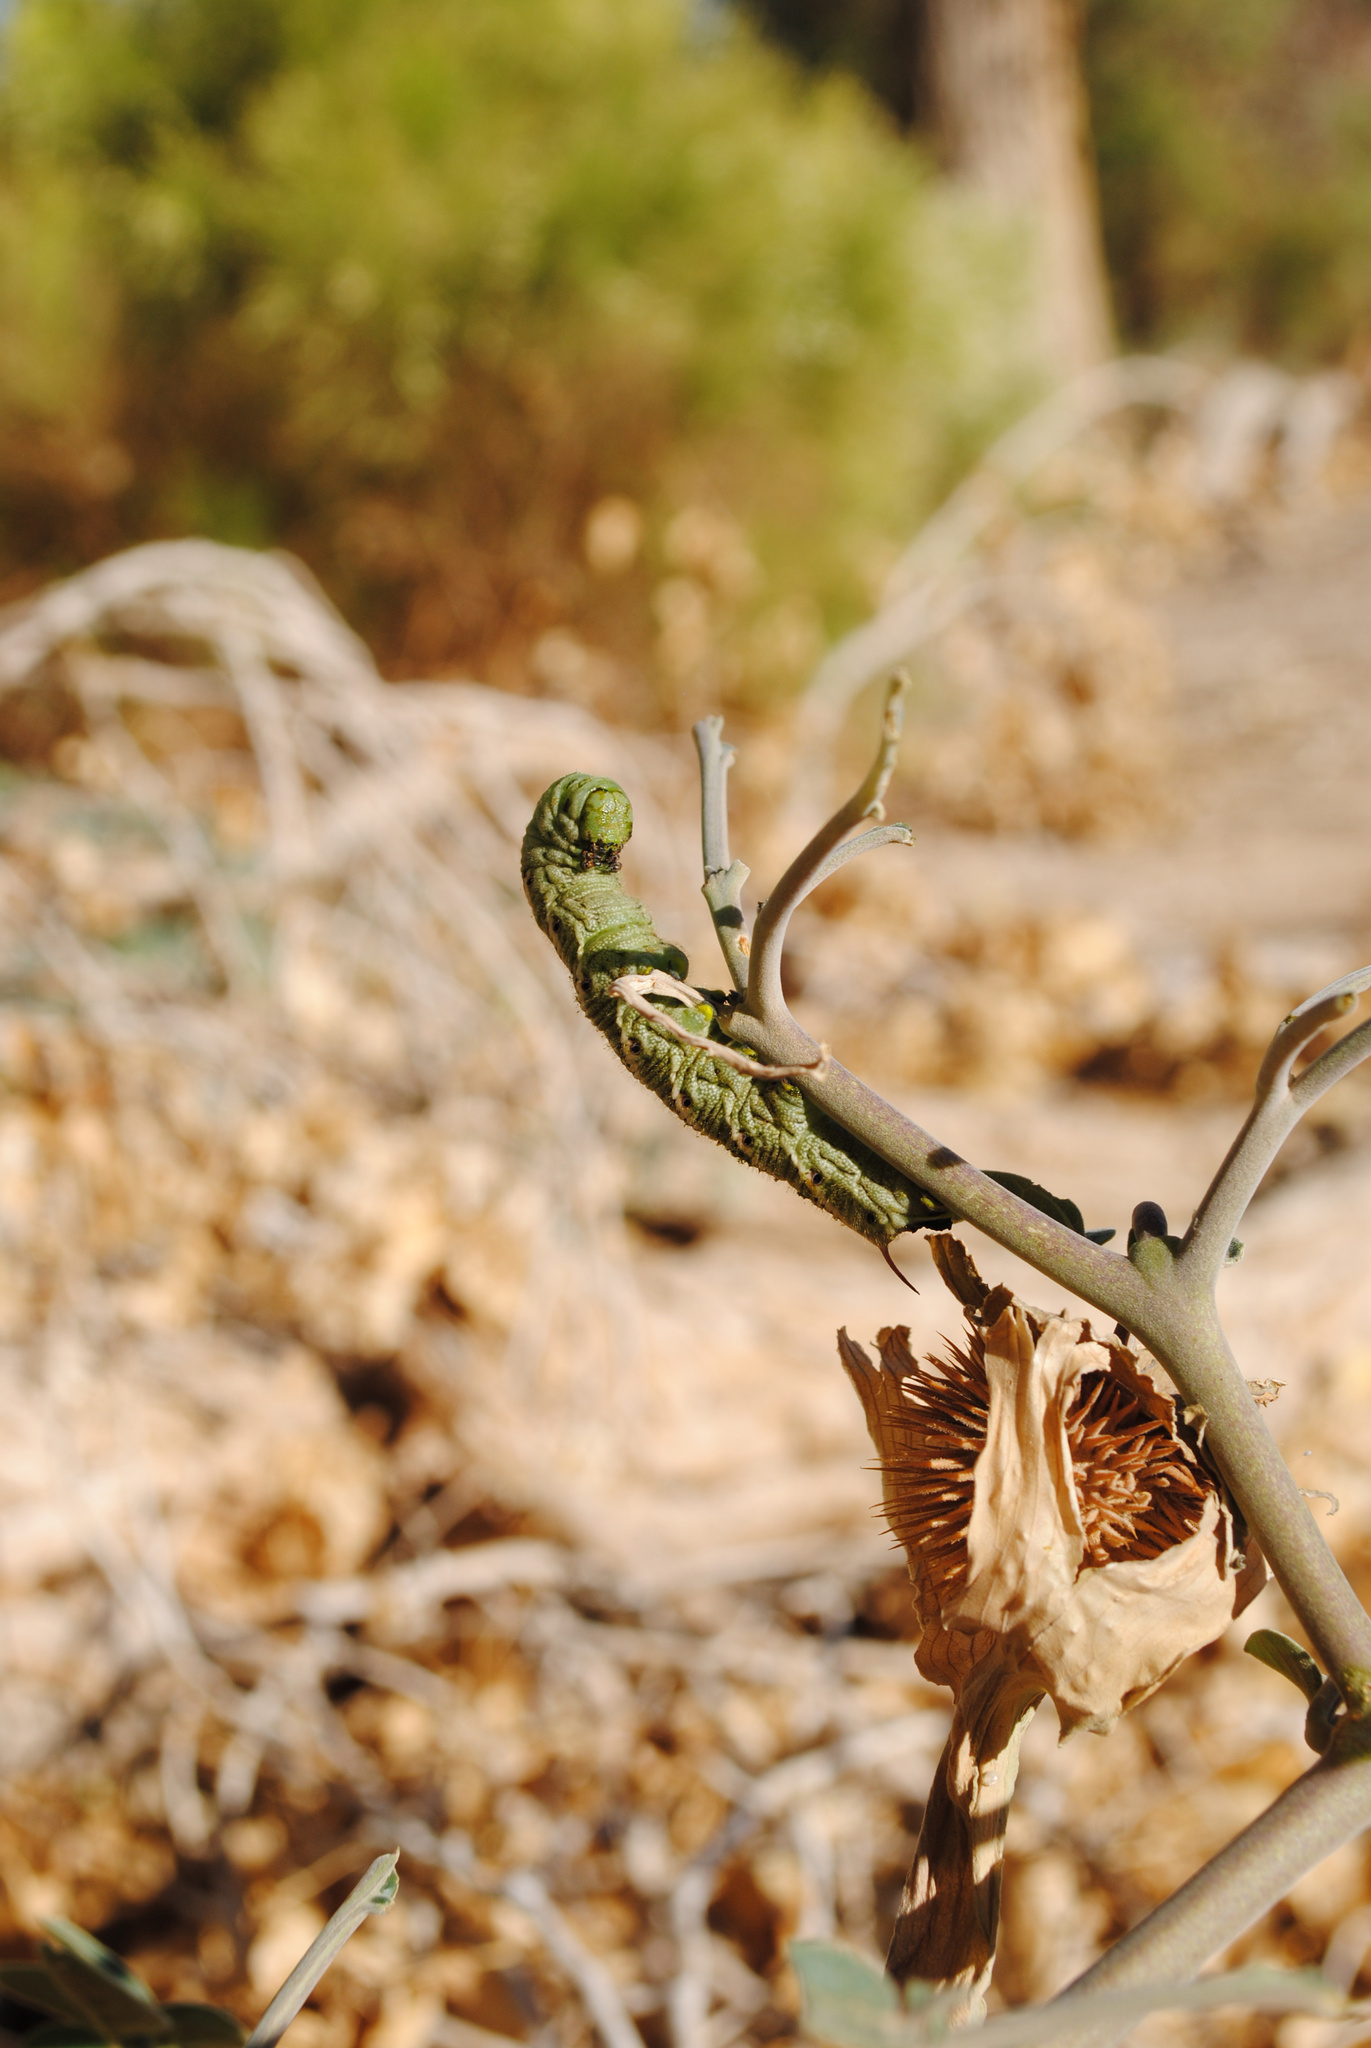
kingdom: Animalia
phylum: Arthropoda
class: Insecta
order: Lepidoptera
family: Sphingidae
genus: Manduca
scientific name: Manduca sexta
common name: Carolina sphinx
